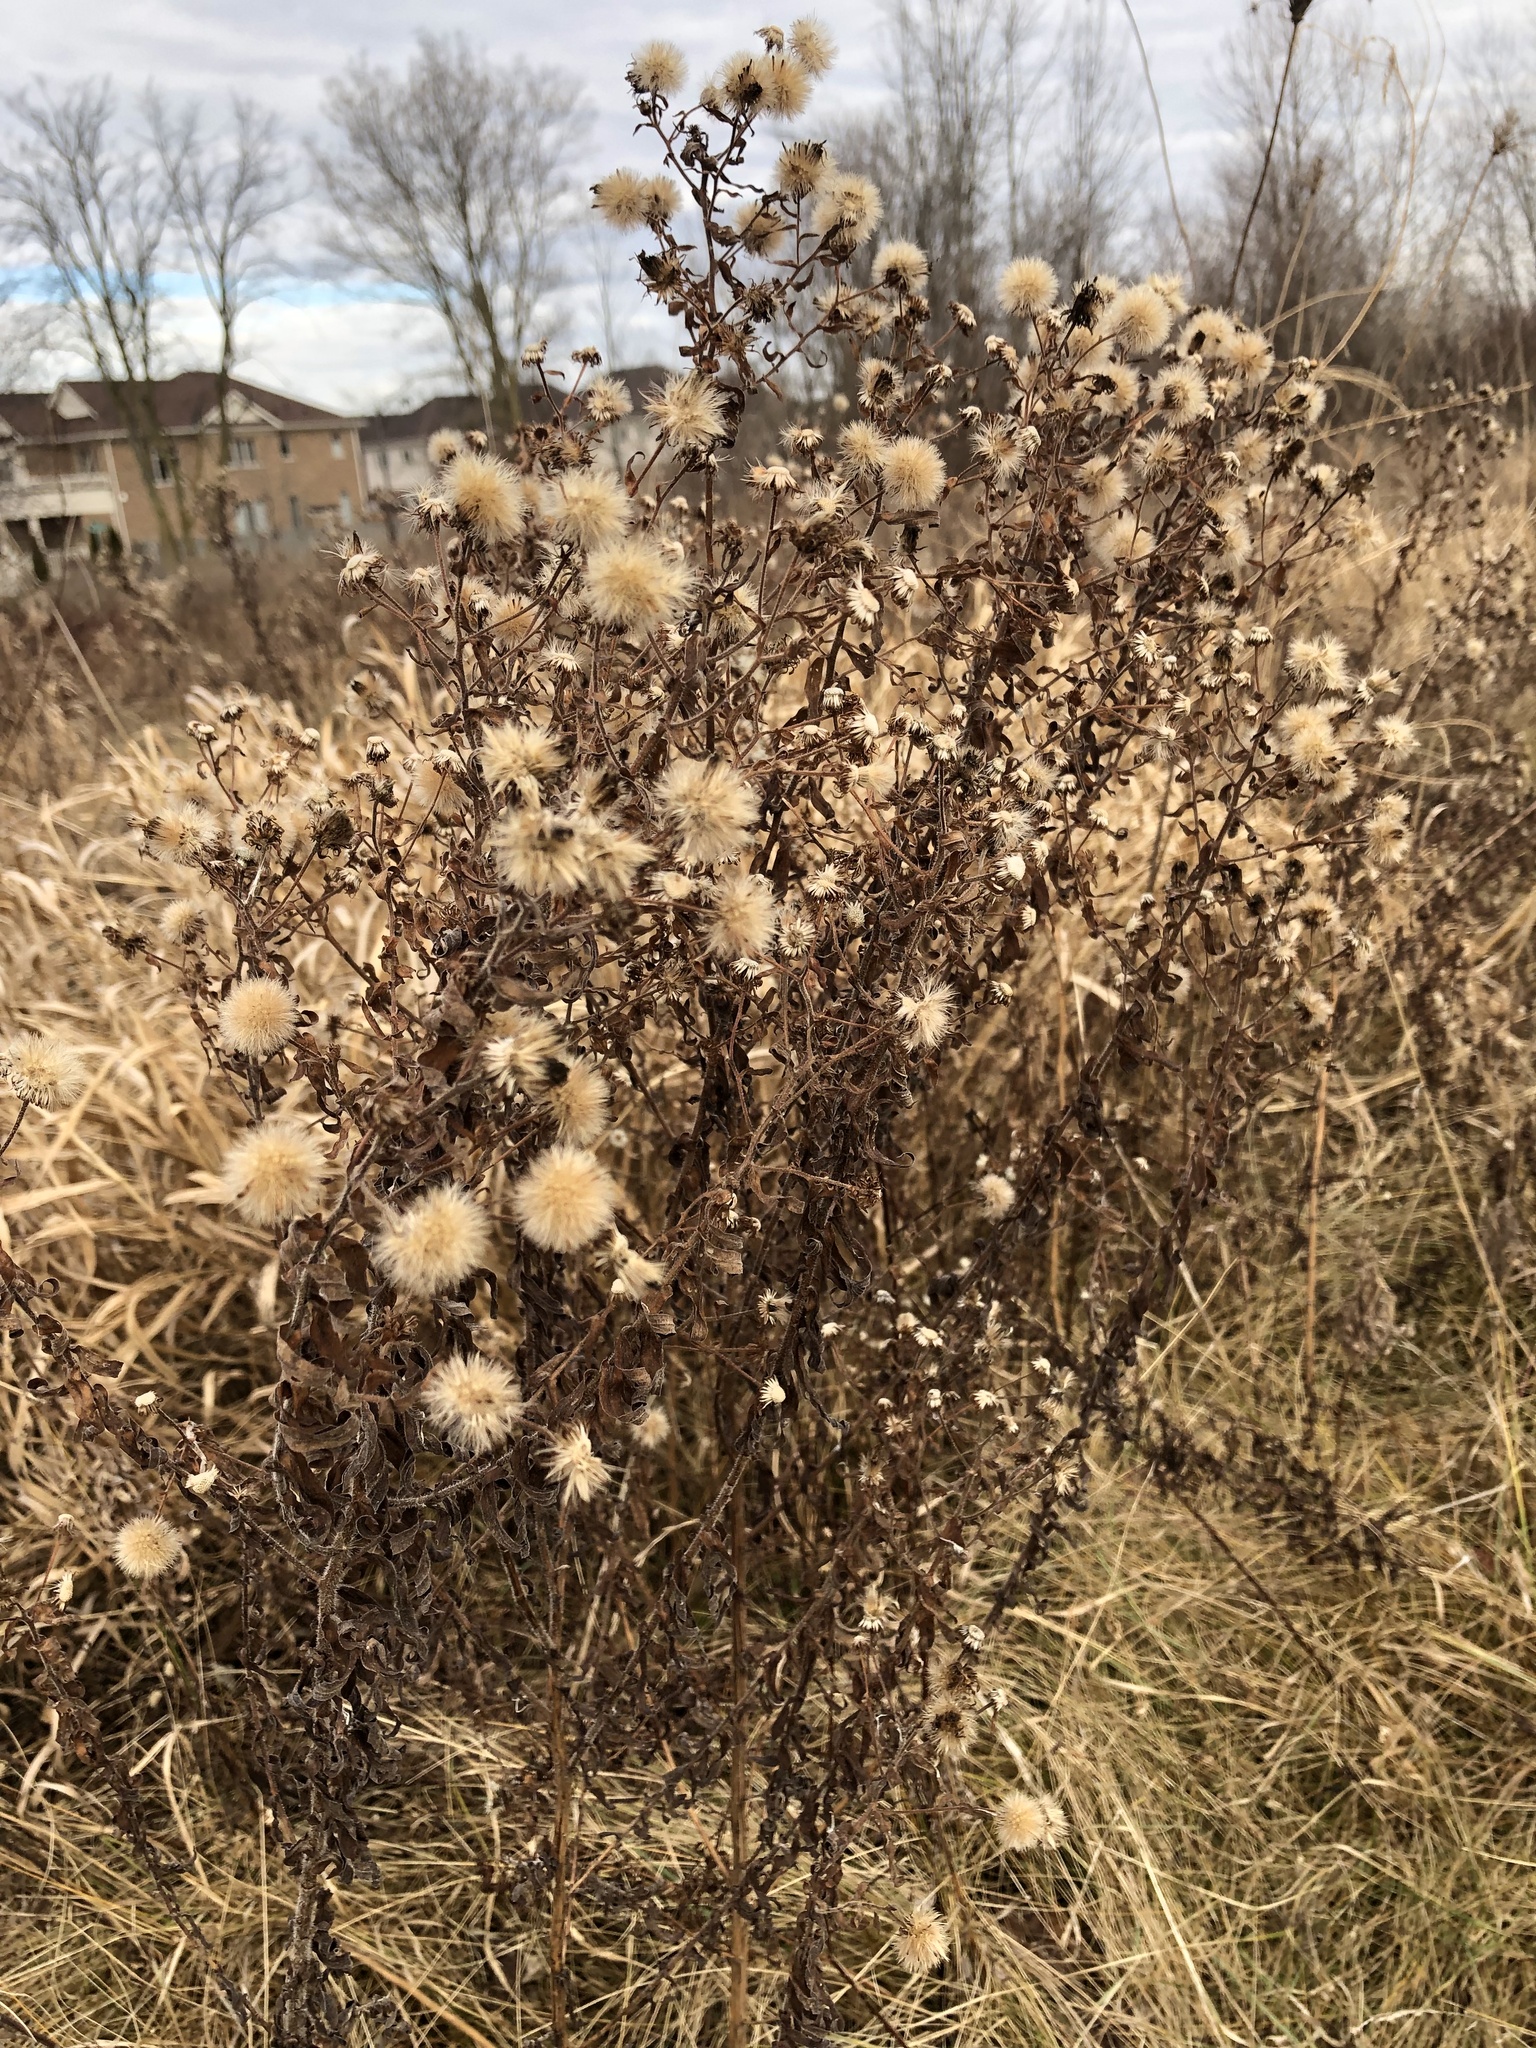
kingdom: Plantae
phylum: Tracheophyta
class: Magnoliopsida
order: Asterales
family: Asteraceae
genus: Symphyotrichum
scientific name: Symphyotrichum novae-angliae
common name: Michaelmas daisy
